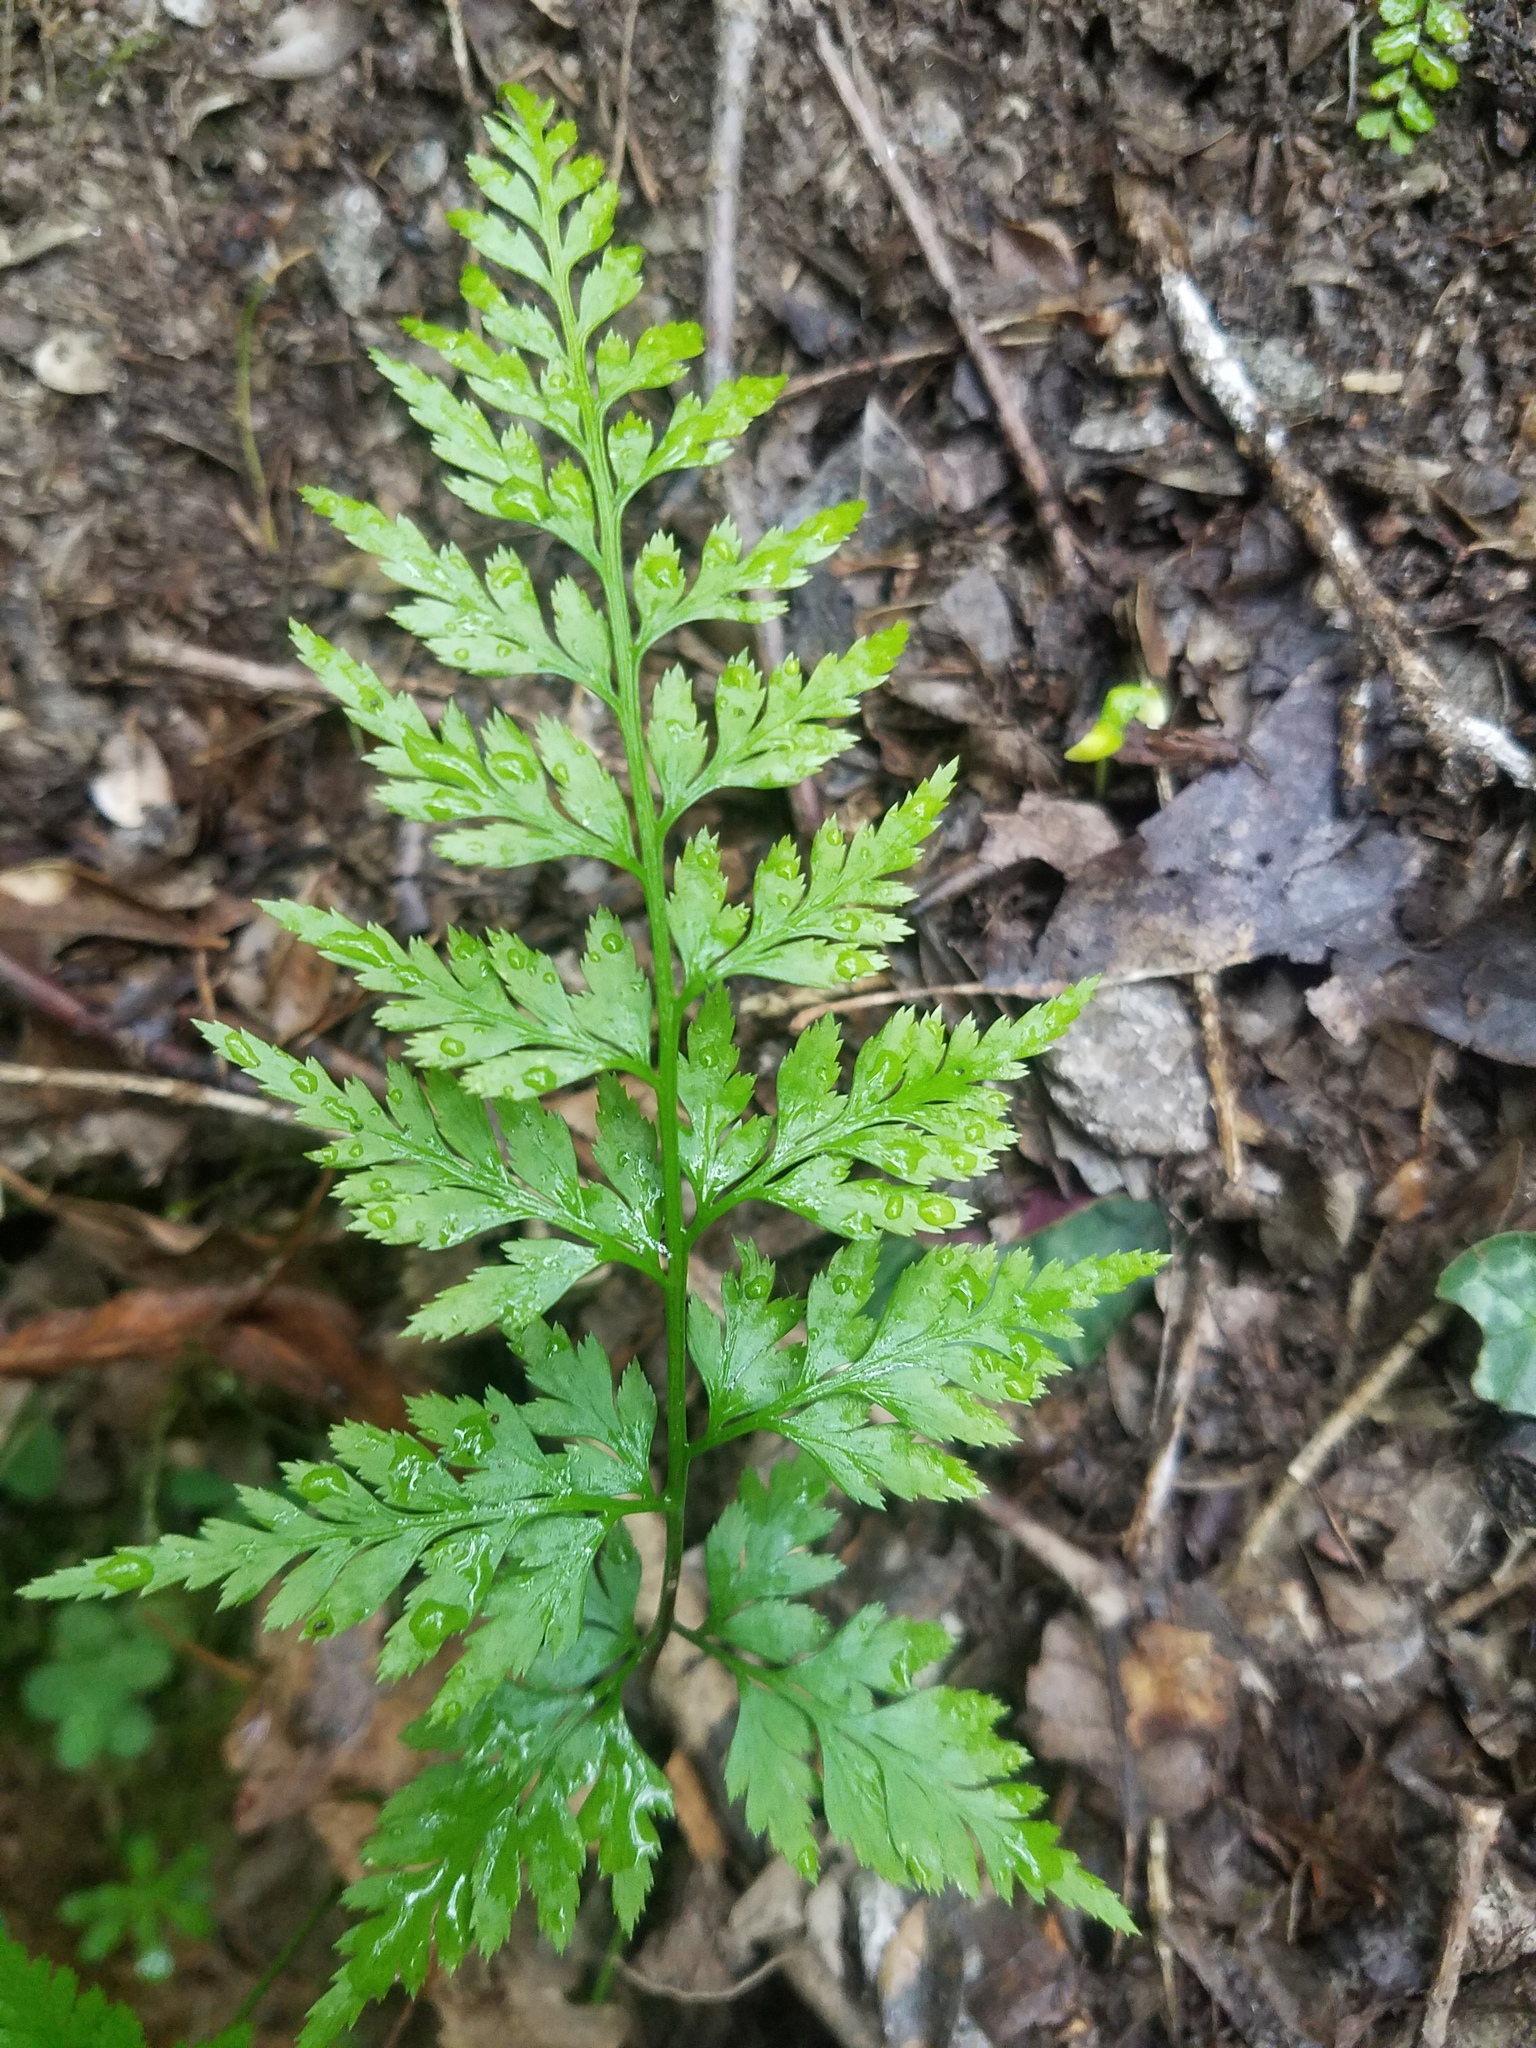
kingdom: Plantae
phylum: Tracheophyta
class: Polypodiopsida
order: Polypodiales
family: Aspleniaceae
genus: Asplenium
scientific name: Asplenium adiantum-nigrum
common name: Black spleenwort
